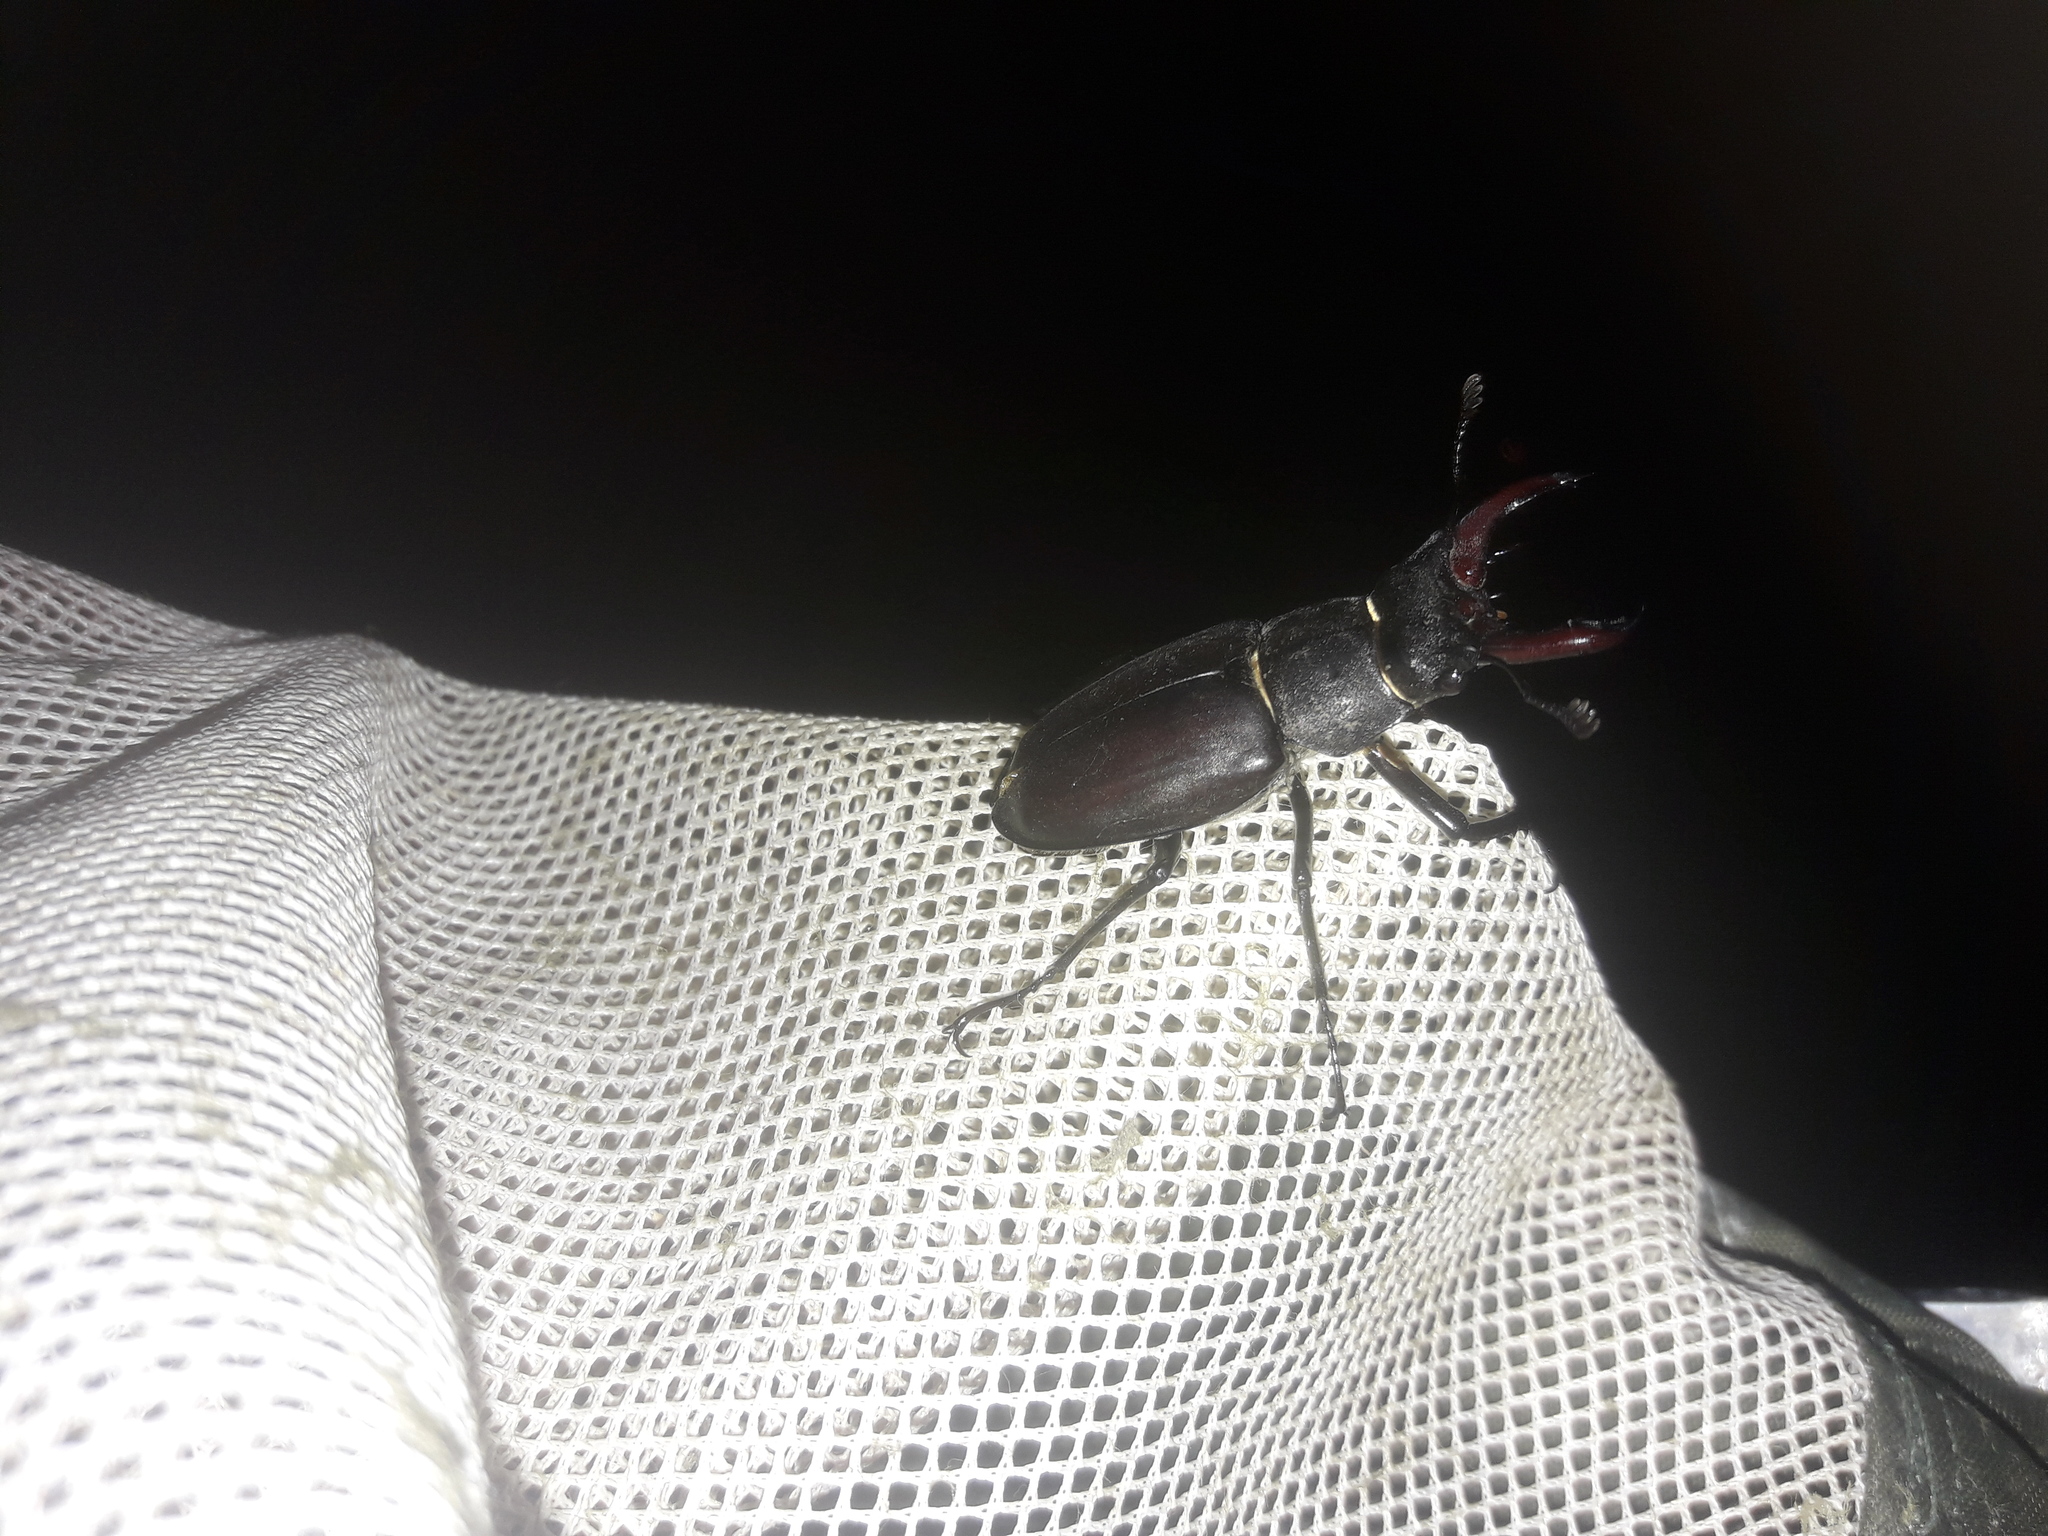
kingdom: Animalia
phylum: Arthropoda
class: Insecta
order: Coleoptera
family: Lucanidae
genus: Lucanus
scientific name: Lucanus cervus
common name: Stag beetle
